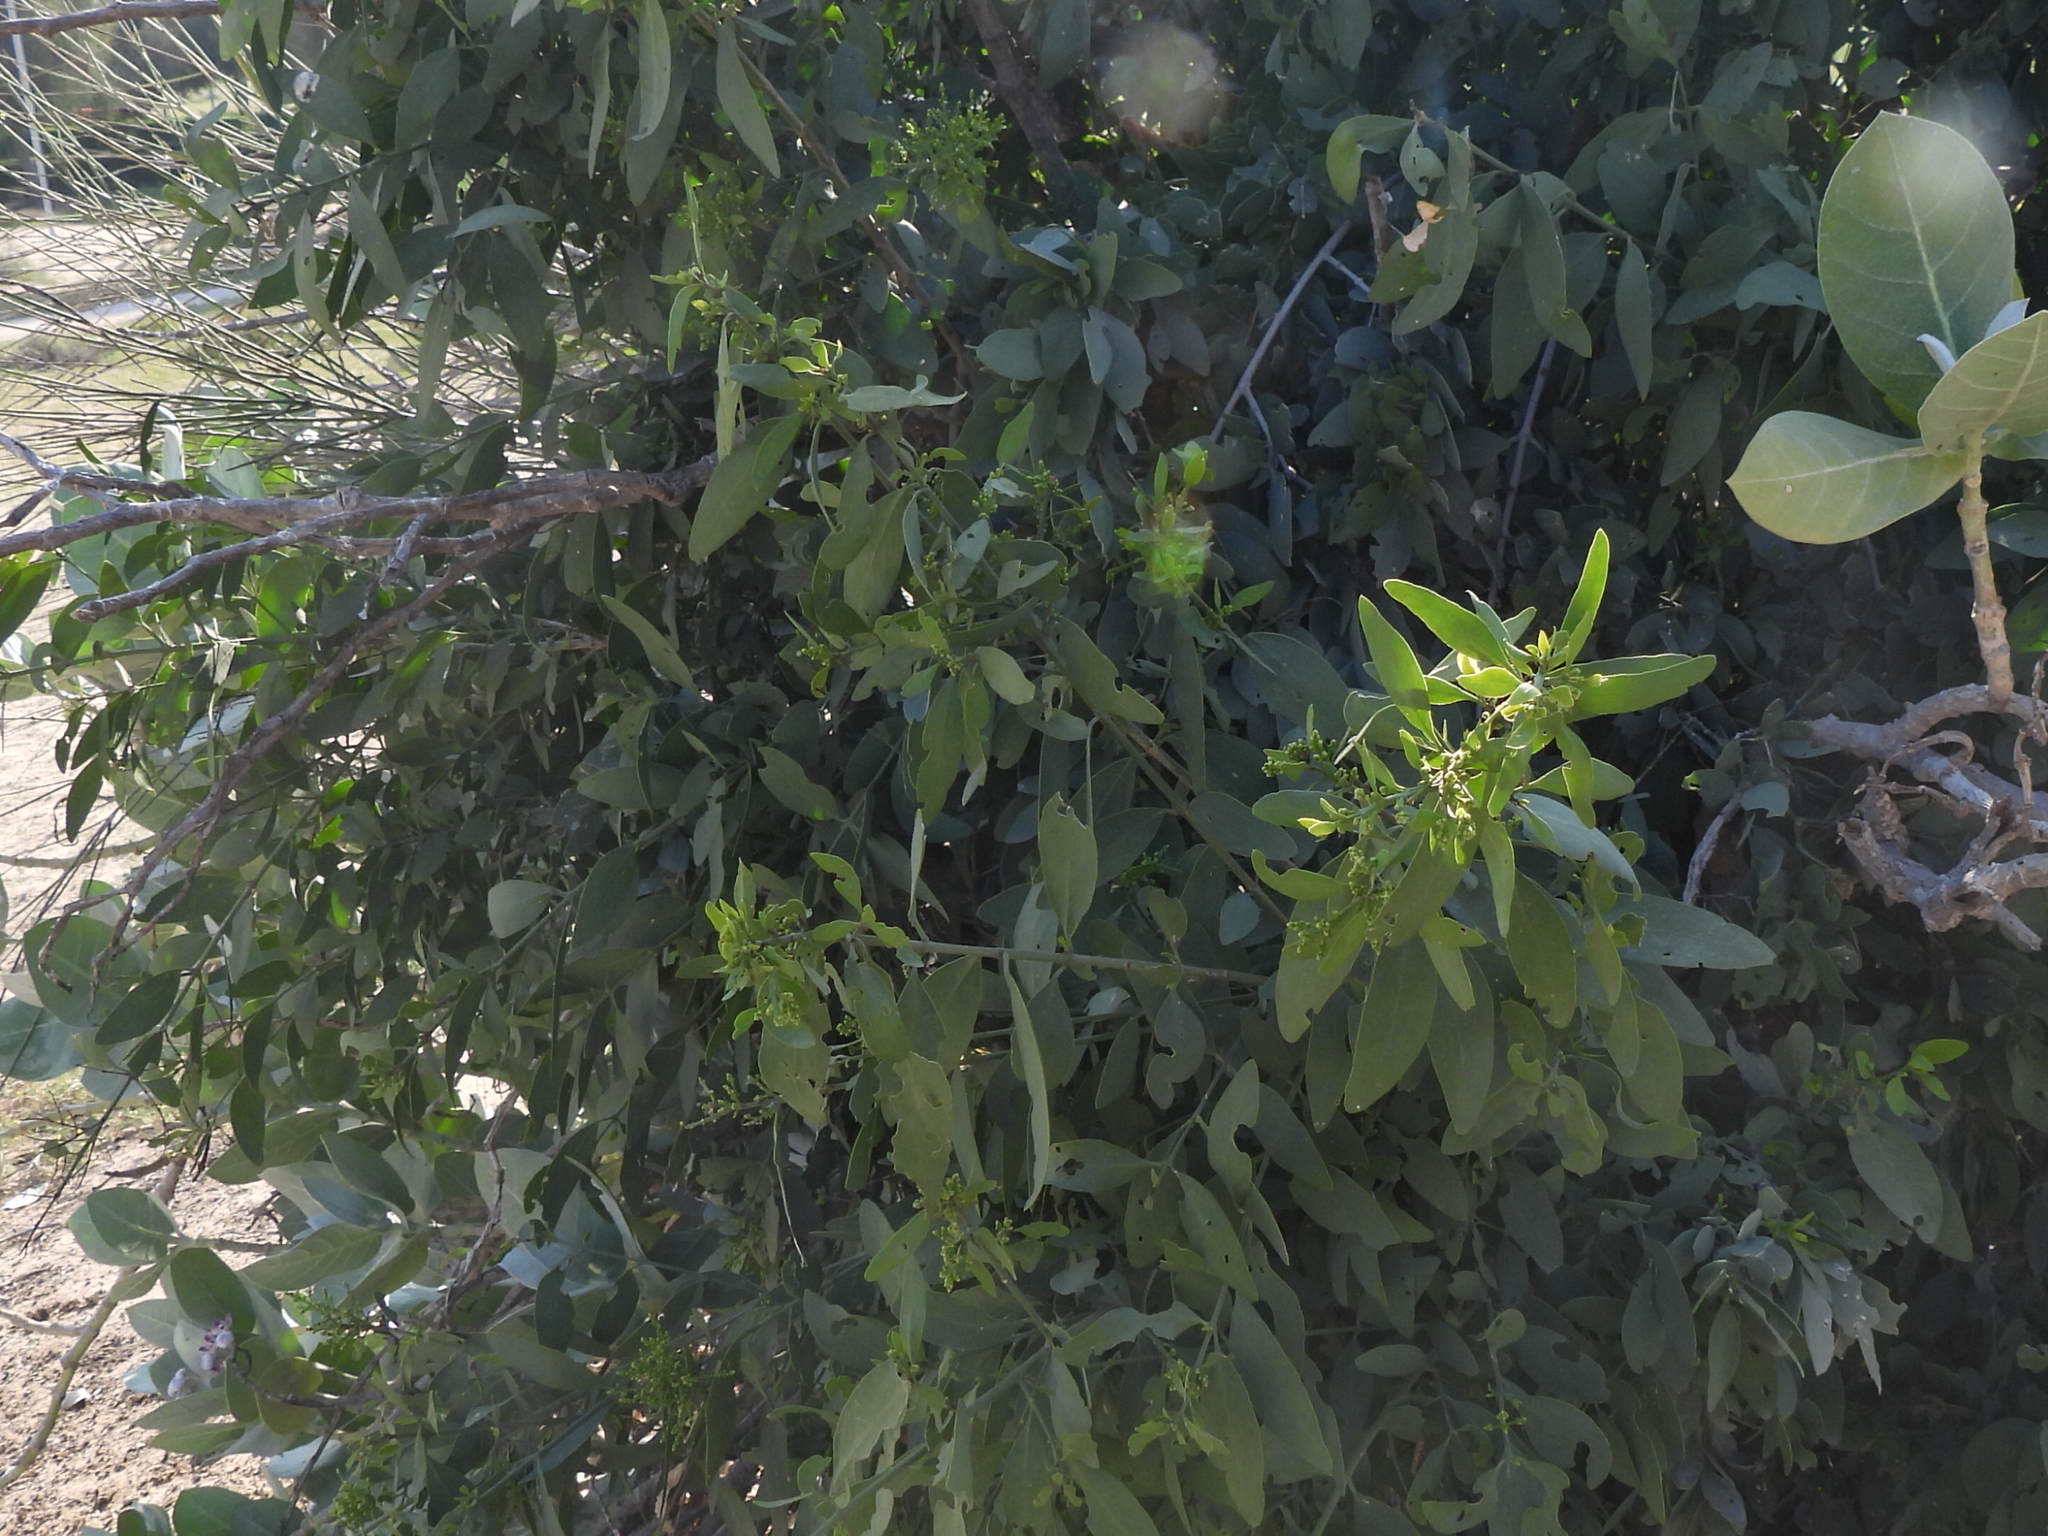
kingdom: Plantae
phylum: Tracheophyta
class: Magnoliopsida
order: Brassicales
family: Salvadoraceae
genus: Salvadora
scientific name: Salvadora persica
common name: Toothbrushtree
